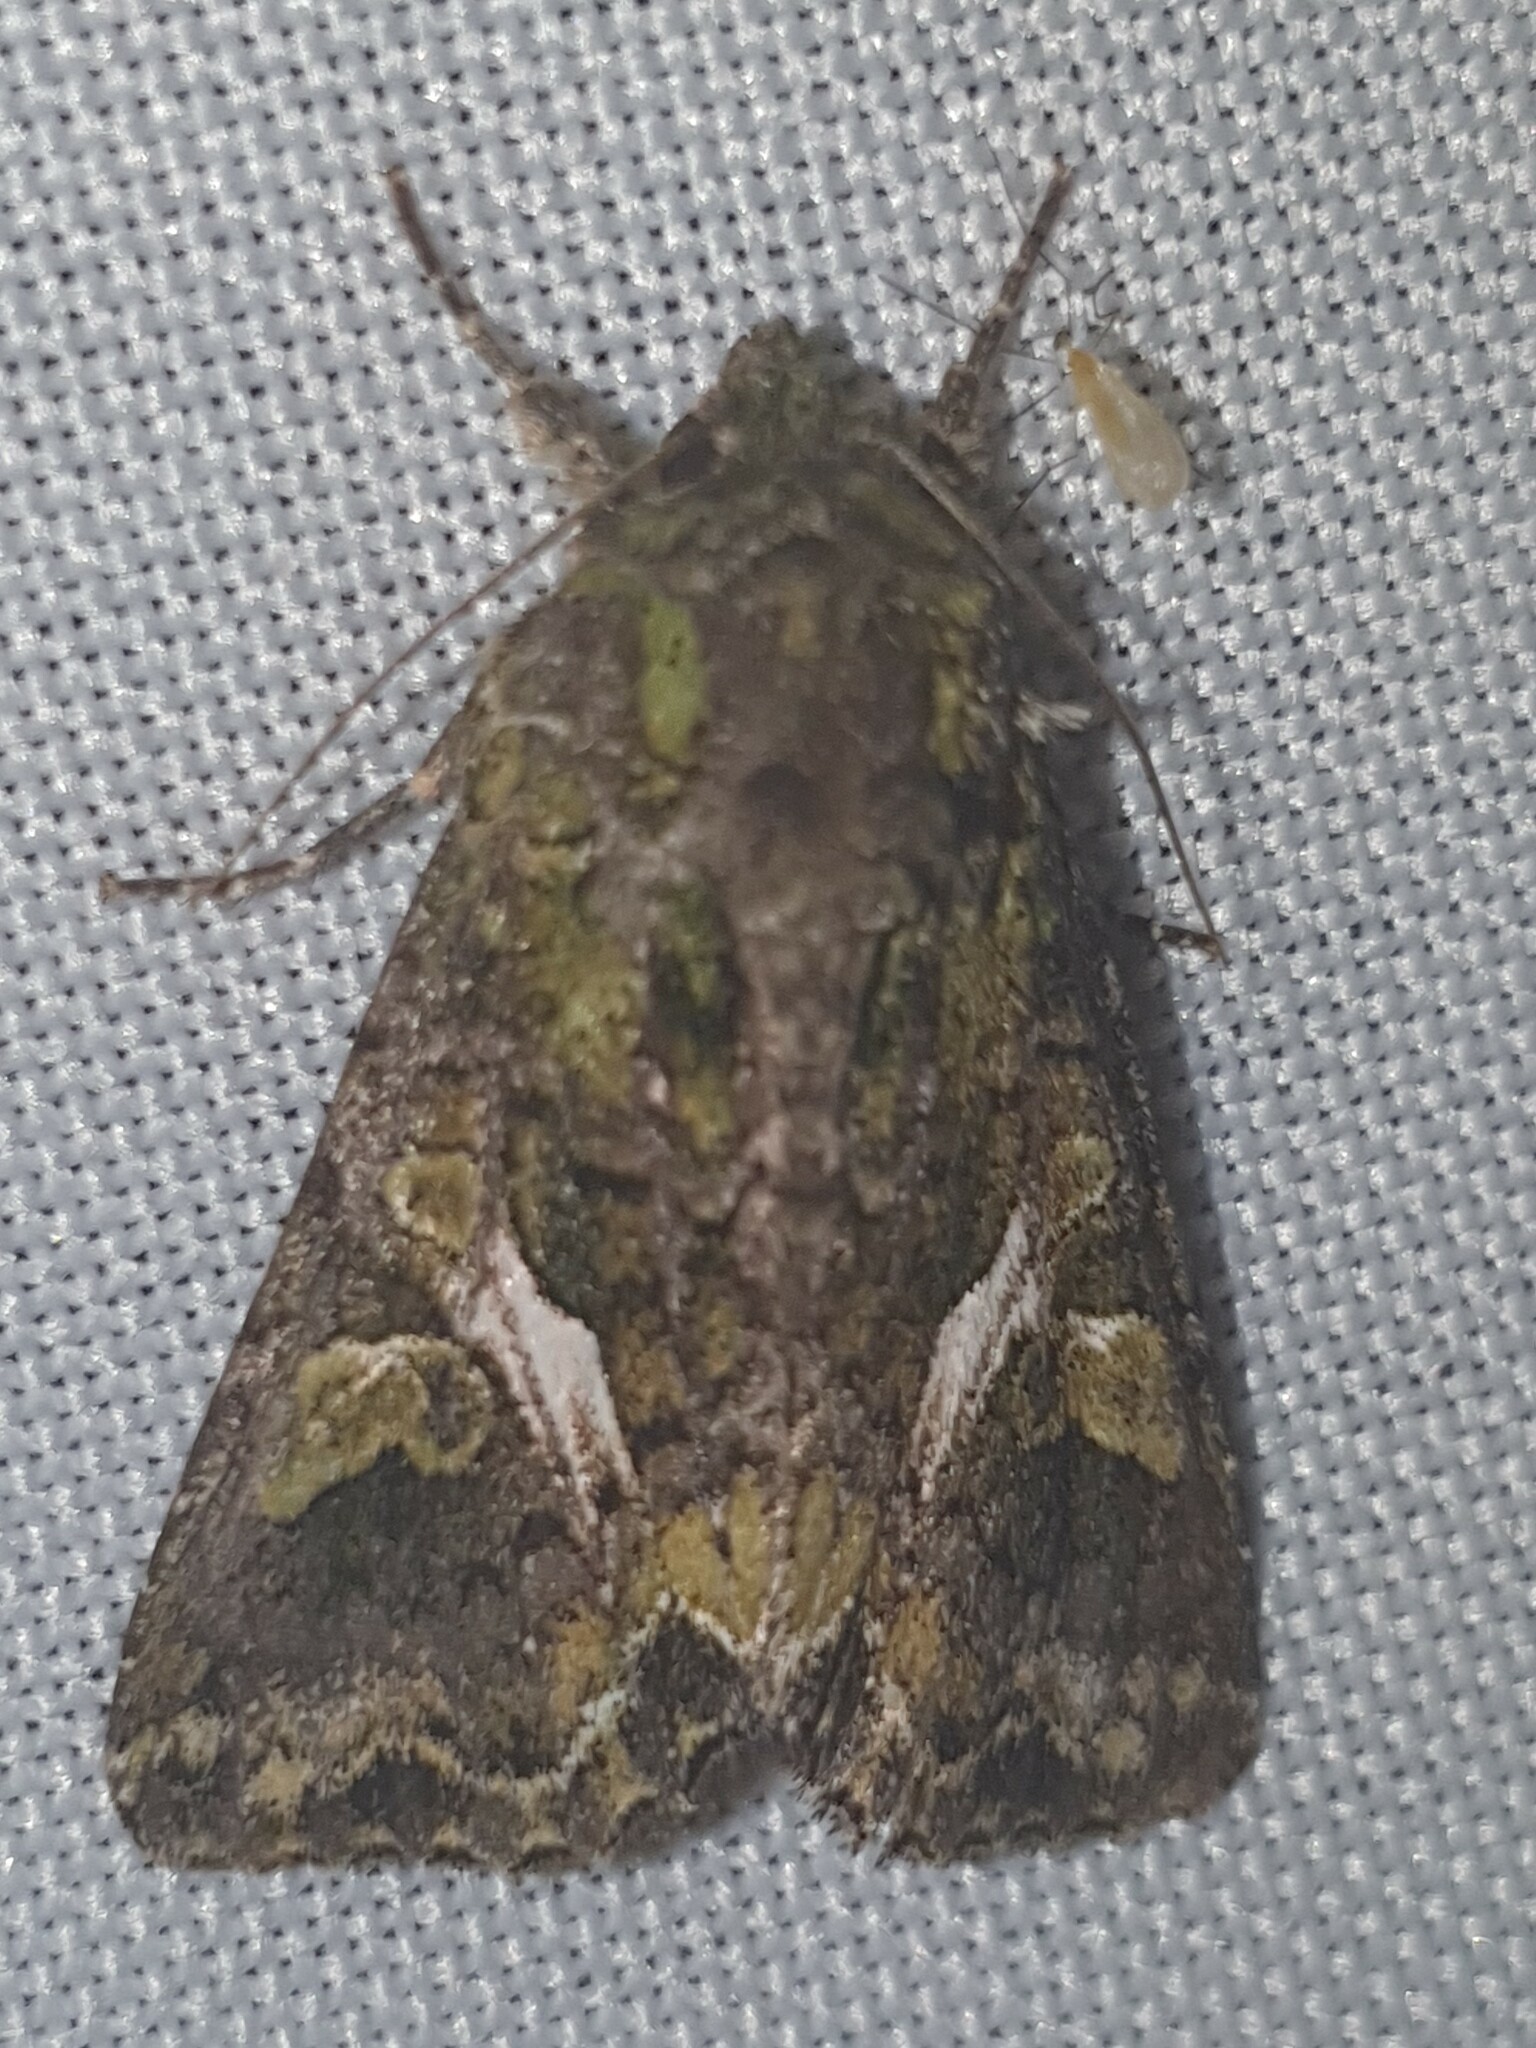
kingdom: Animalia
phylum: Arthropoda
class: Insecta
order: Lepidoptera
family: Noctuidae
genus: Trachea
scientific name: Trachea atriplicis
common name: Orache moth
